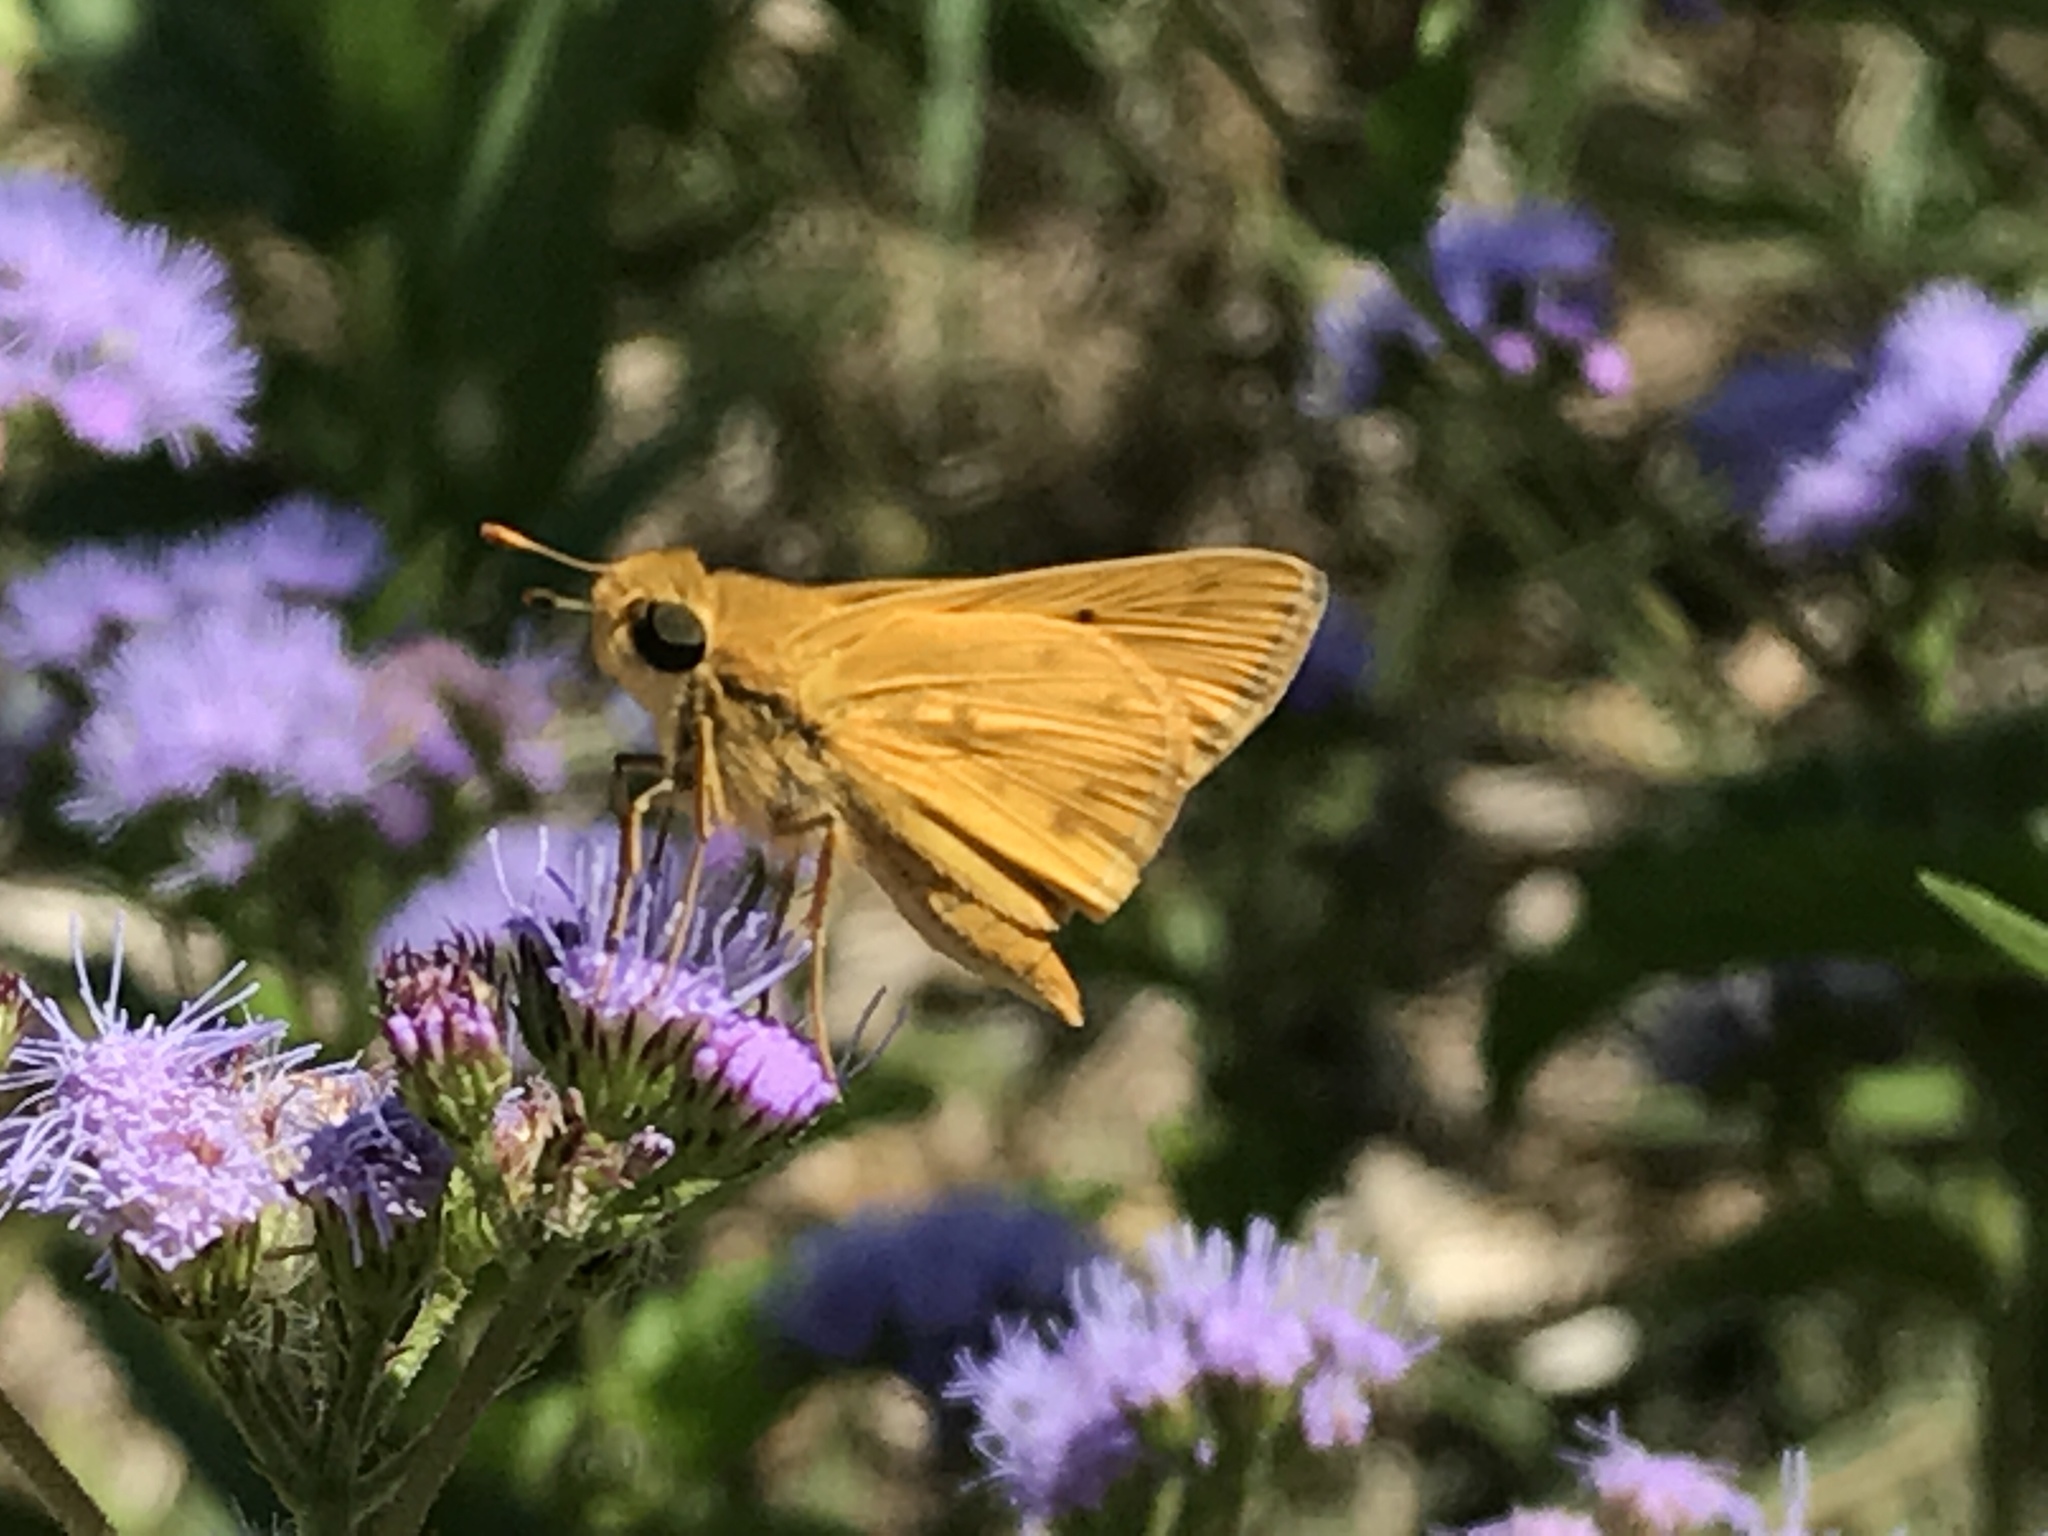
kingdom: Animalia
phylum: Arthropoda
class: Insecta
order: Lepidoptera
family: Hesperiidae
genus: Hylephila
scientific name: Hylephila phyleus
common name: Fiery skipper
